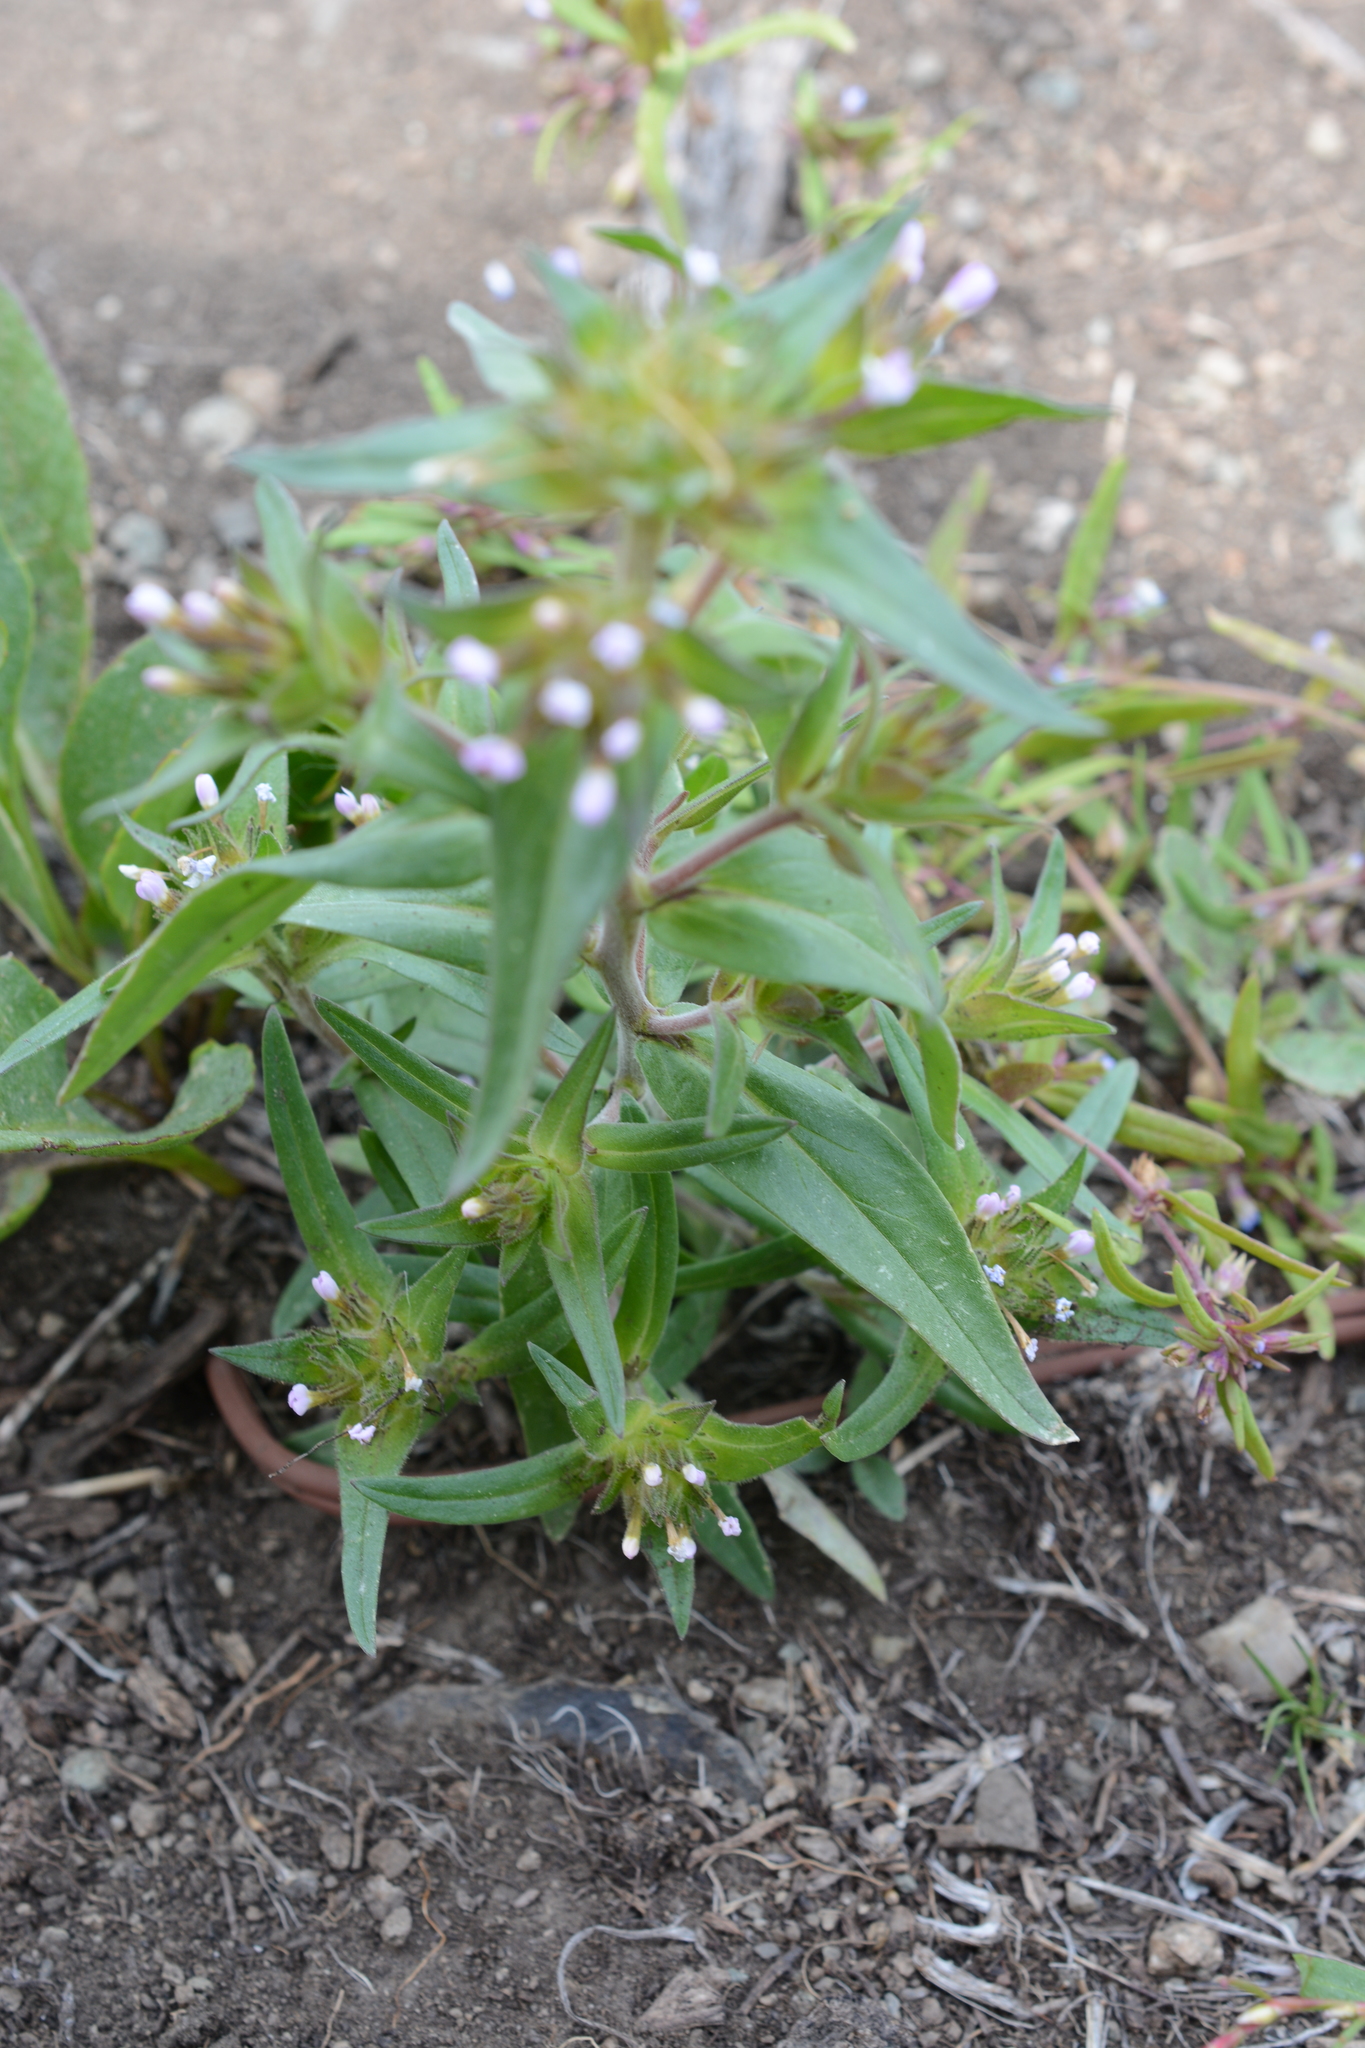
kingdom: Plantae
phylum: Tracheophyta
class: Magnoliopsida
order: Ericales
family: Polemoniaceae
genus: Collomia
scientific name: Collomia linearis
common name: Tiny trumpet
